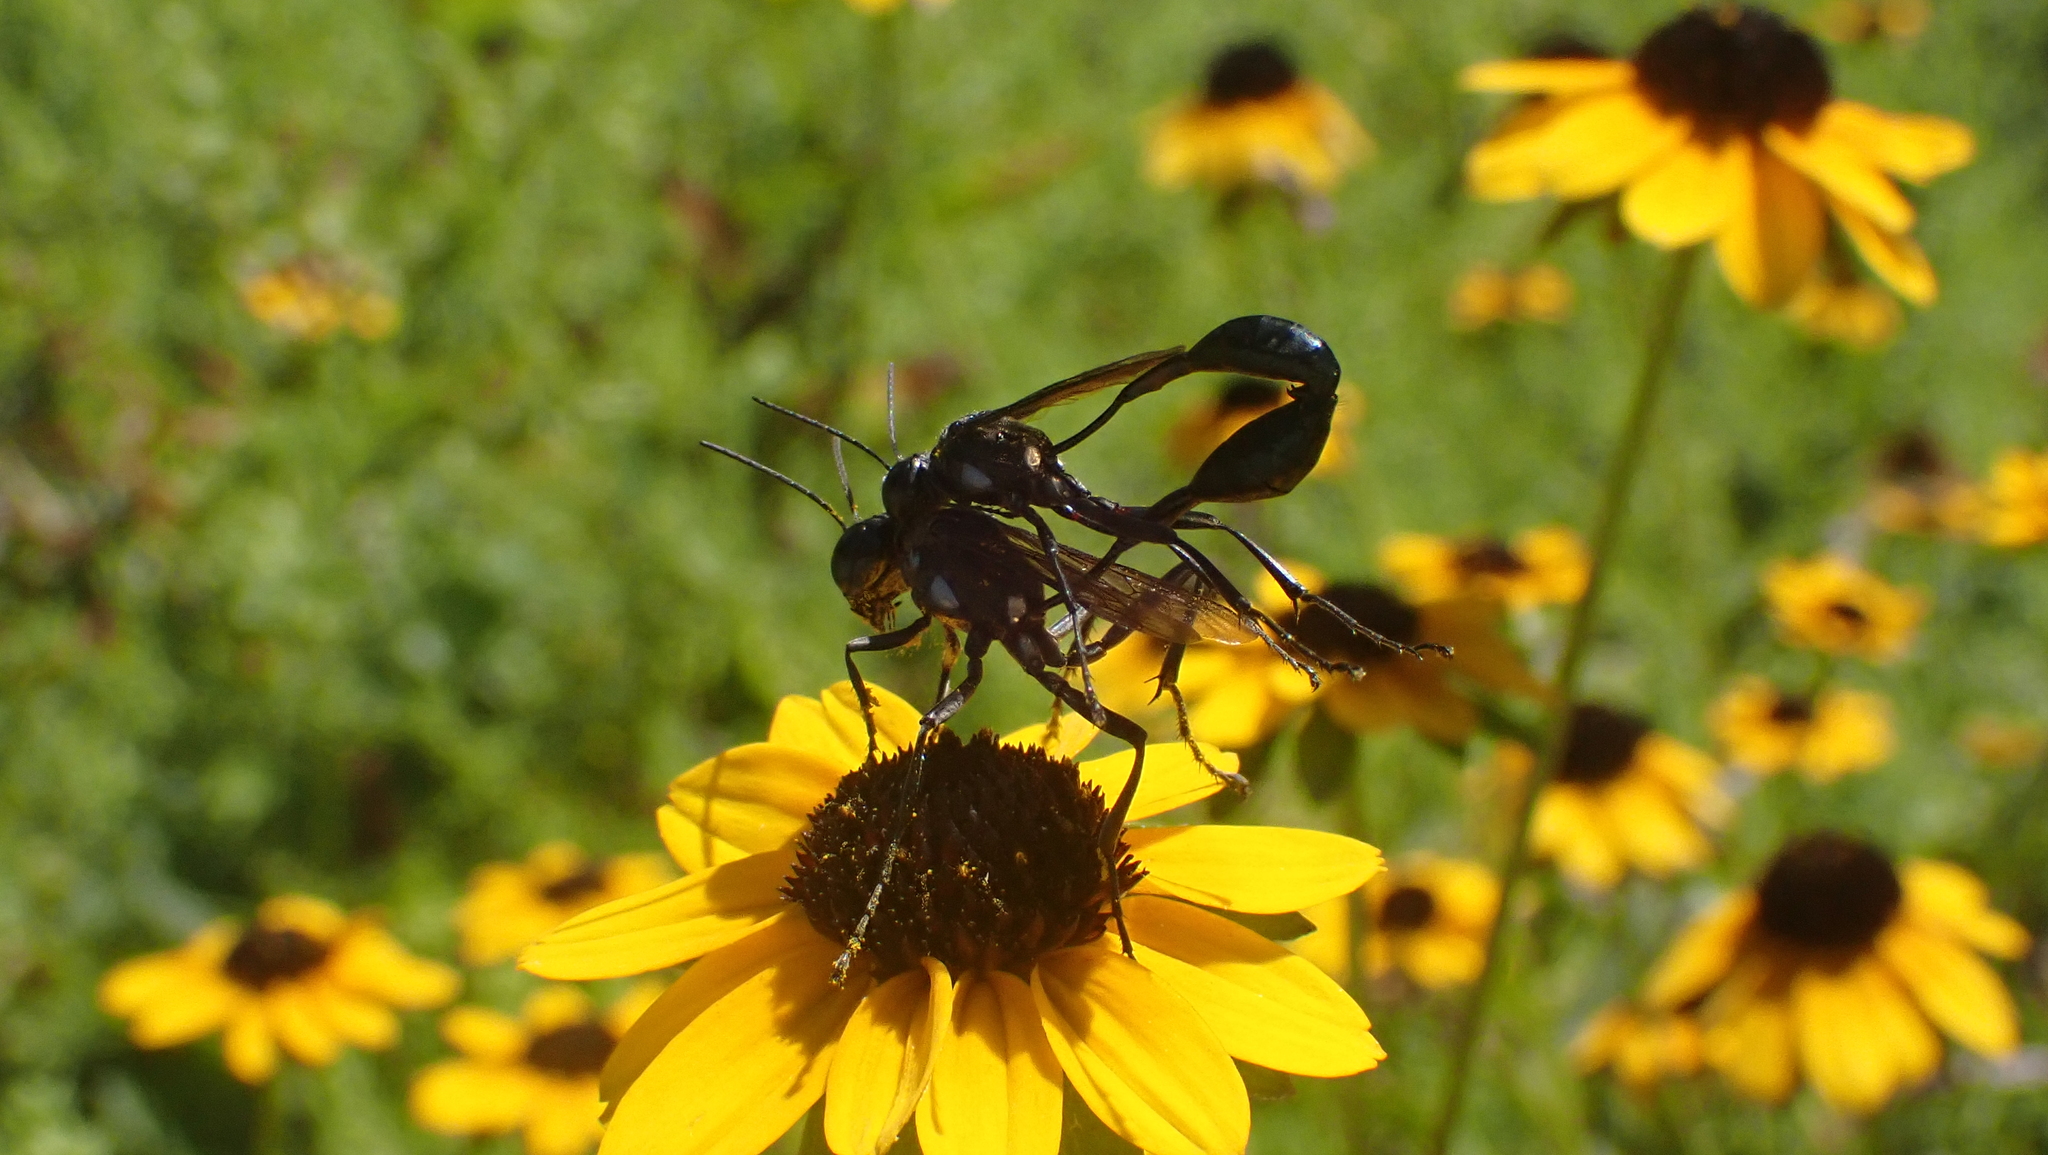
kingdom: Animalia
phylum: Arthropoda
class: Insecta
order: Hymenoptera
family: Sphecidae
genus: Eremnophila
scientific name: Eremnophila aureonotata
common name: Gold-marked thread-waisted wasp
